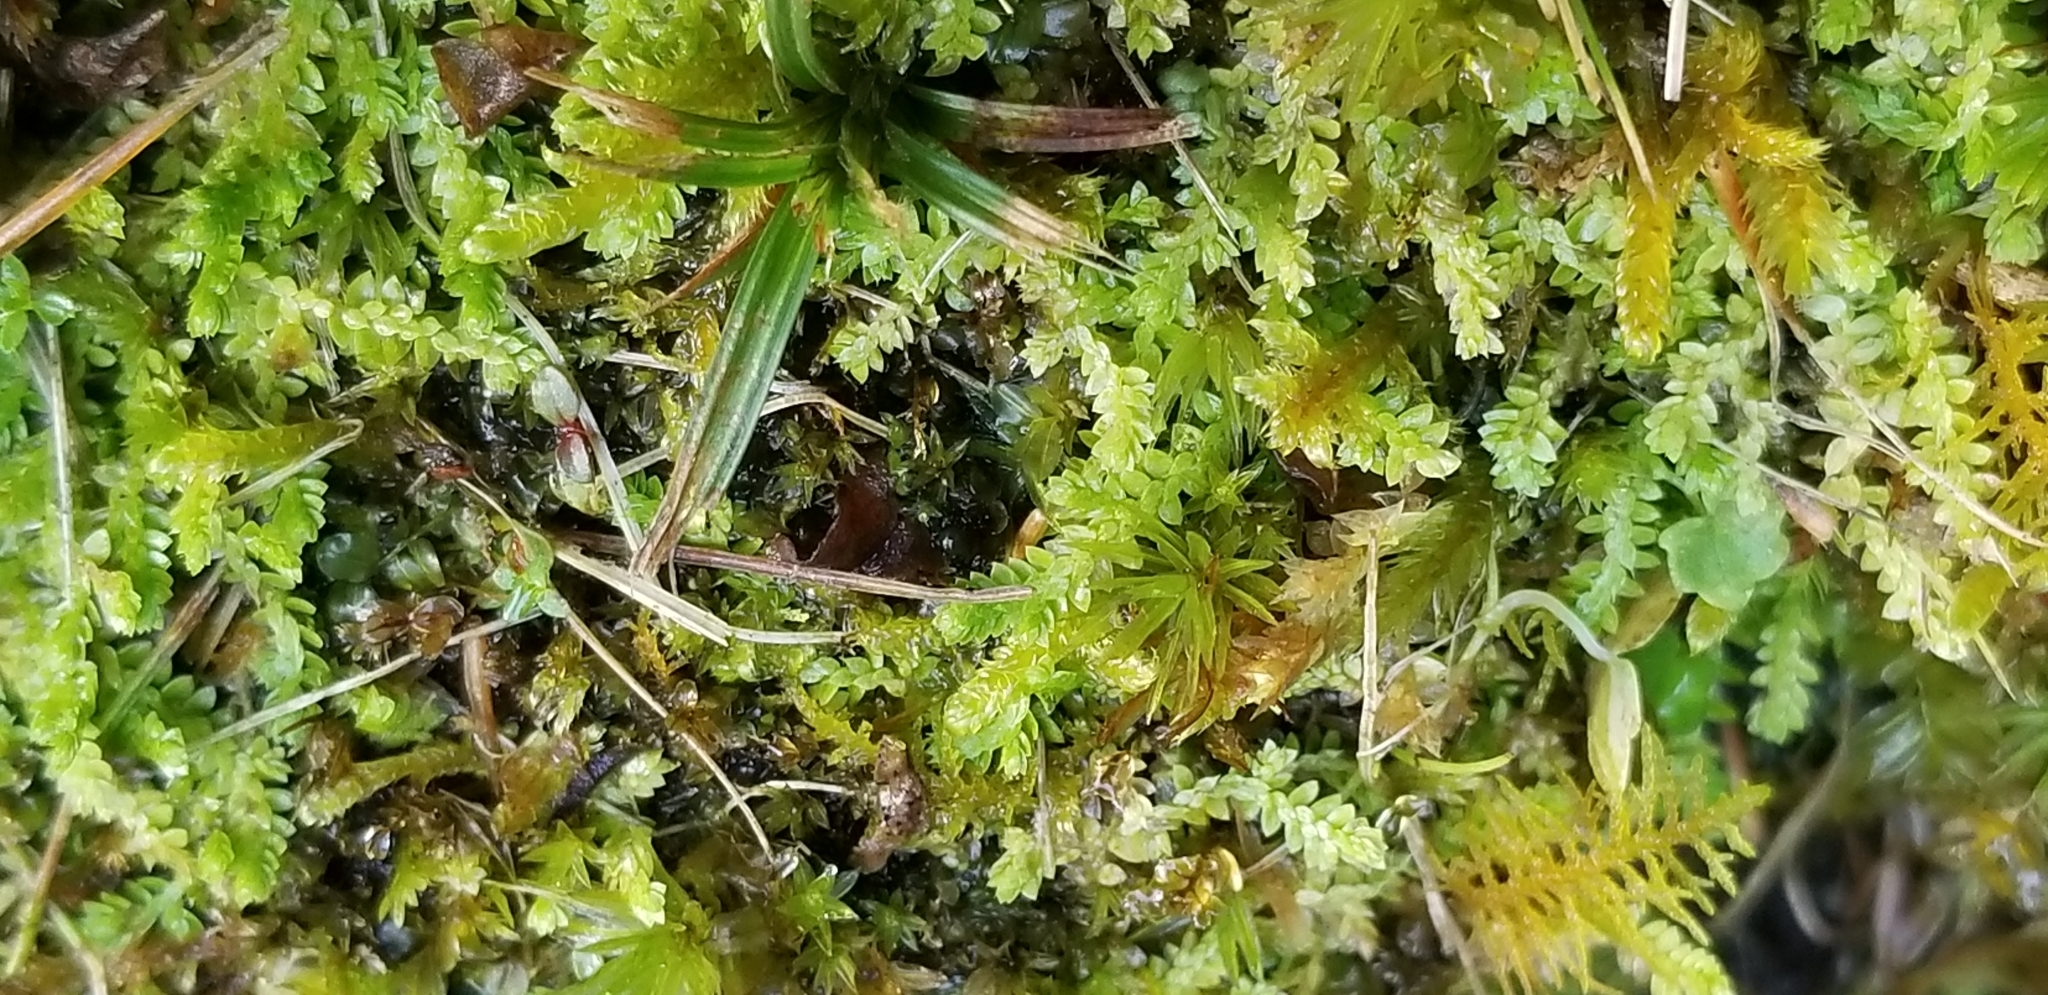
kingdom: Plantae
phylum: Tracheophyta
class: Lycopodiopsida
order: Selaginellales
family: Selaginellaceae
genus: Selaginella
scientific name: Selaginella apoda
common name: Creeping spikemoss
